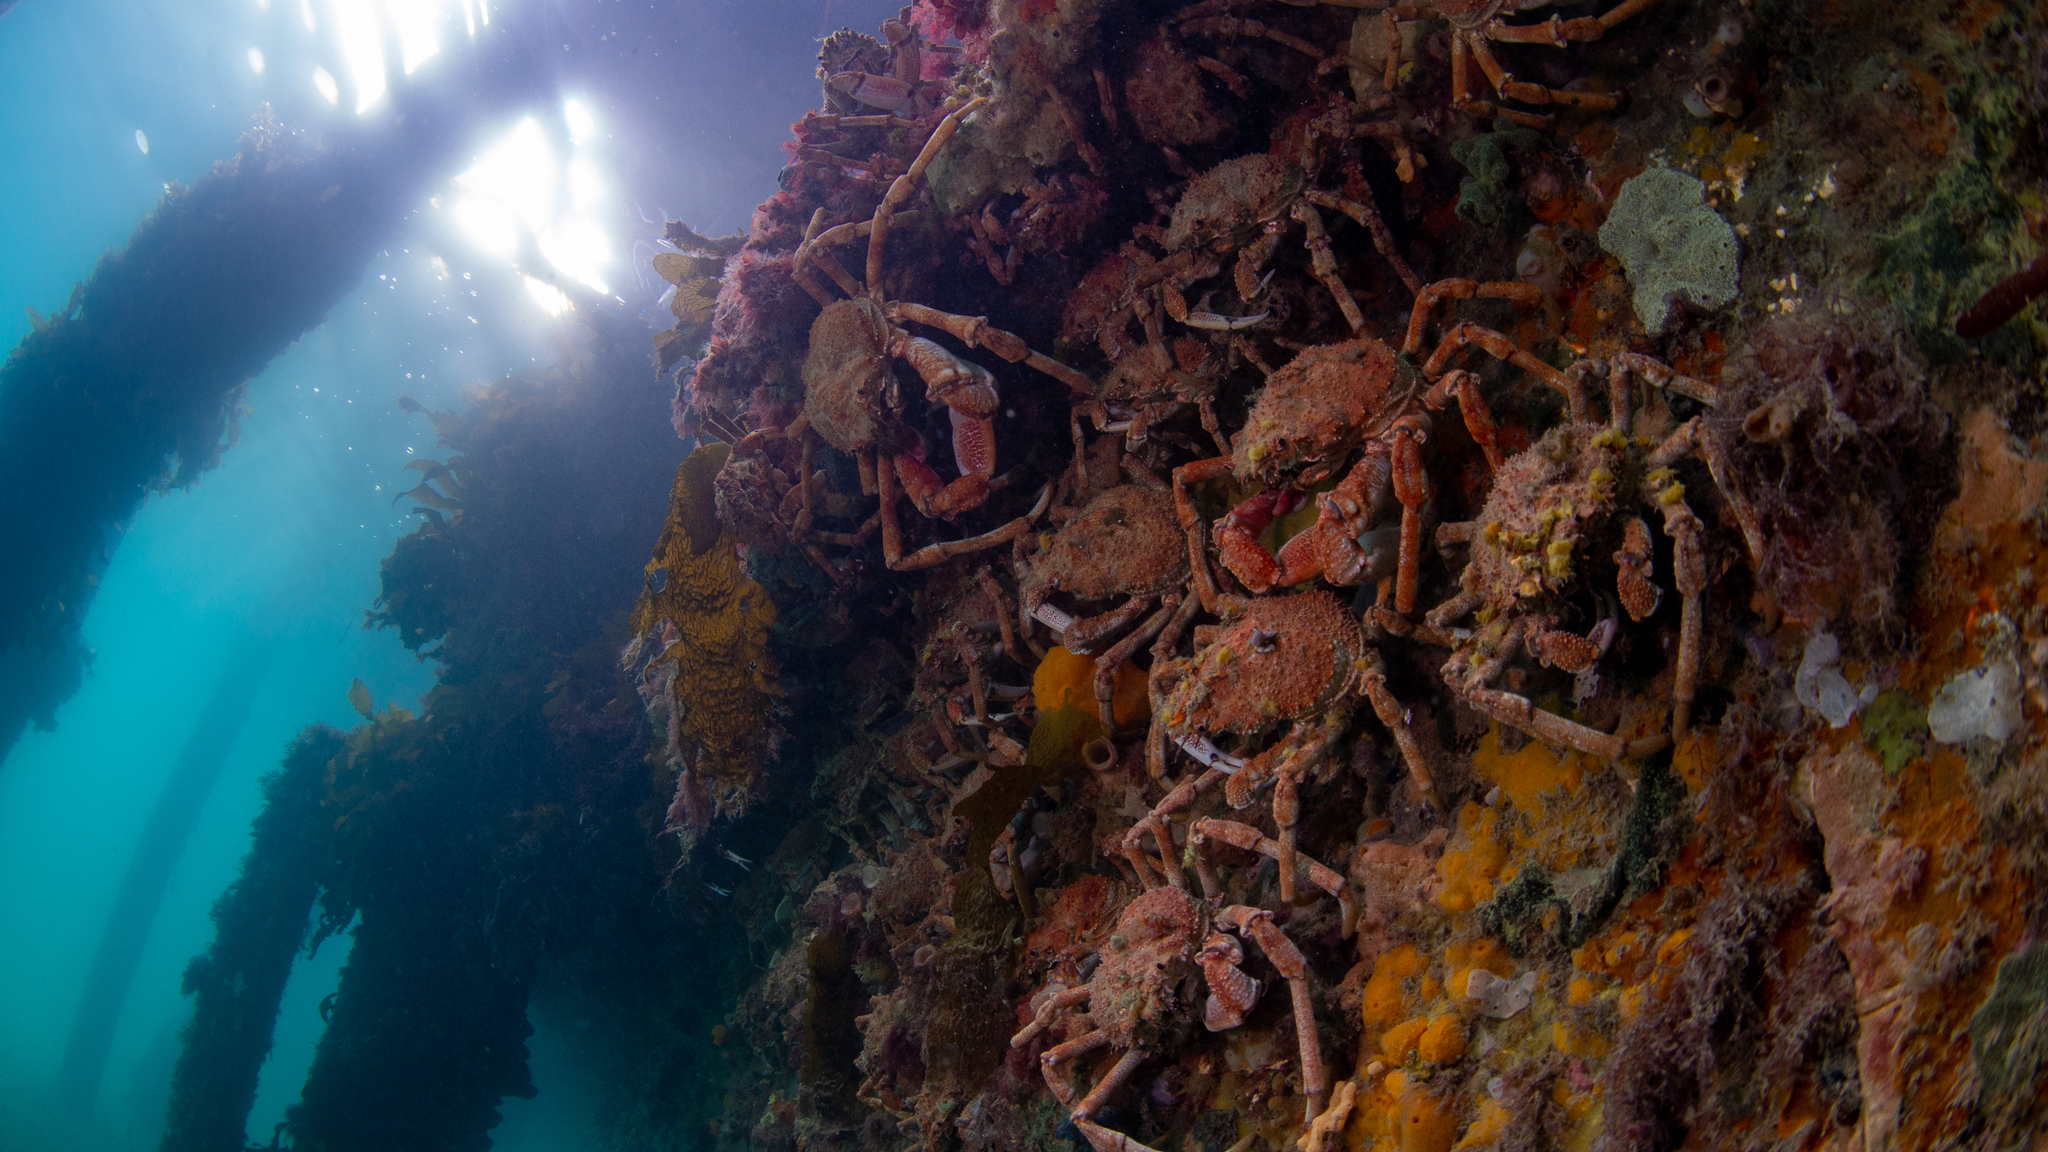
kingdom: Animalia
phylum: Arthropoda
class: Malacostraca
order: Decapoda
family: Majidae
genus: Leptomithrax
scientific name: Leptomithrax gaimardii
